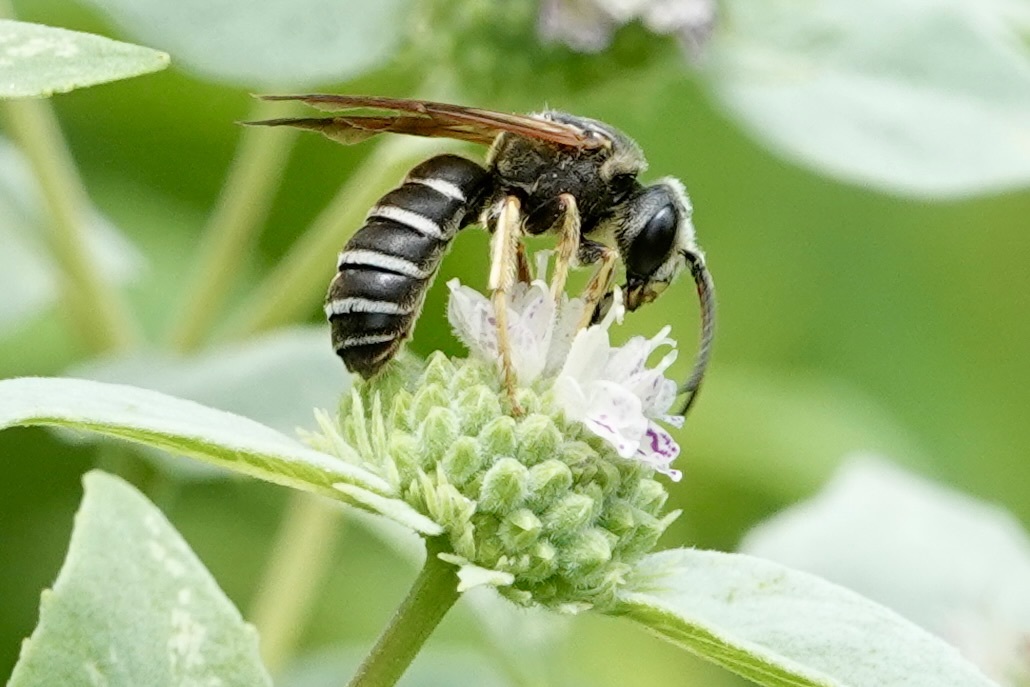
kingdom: Animalia
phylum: Arthropoda
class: Insecta
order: Hymenoptera
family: Halictidae
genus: Halictus
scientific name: Halictus parallelus
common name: Parallel-striped sweat bee
